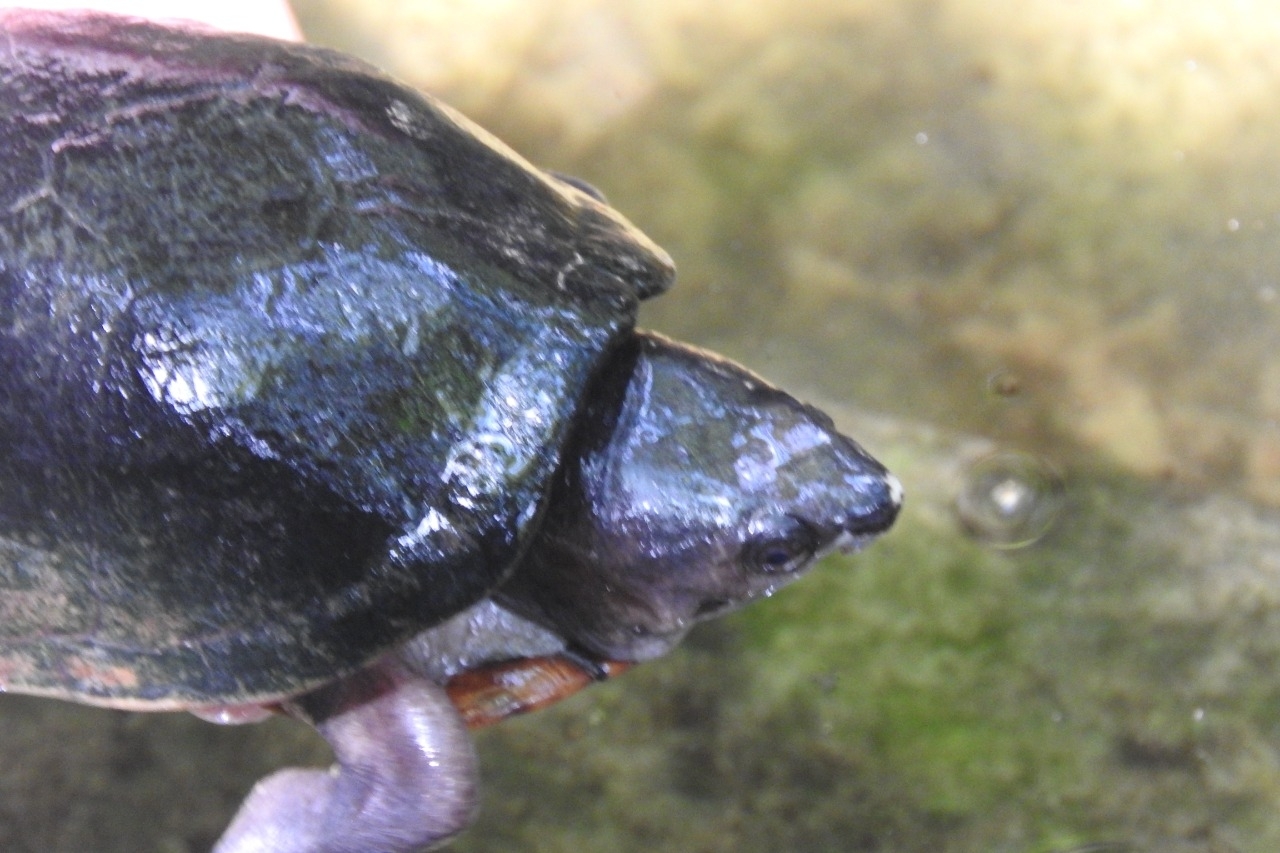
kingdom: Animalia
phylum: Chordata
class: Testudines
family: Kinosternidae
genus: Kinosternon
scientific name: Kinosternon creaseri
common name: Creaser's mud turtle
